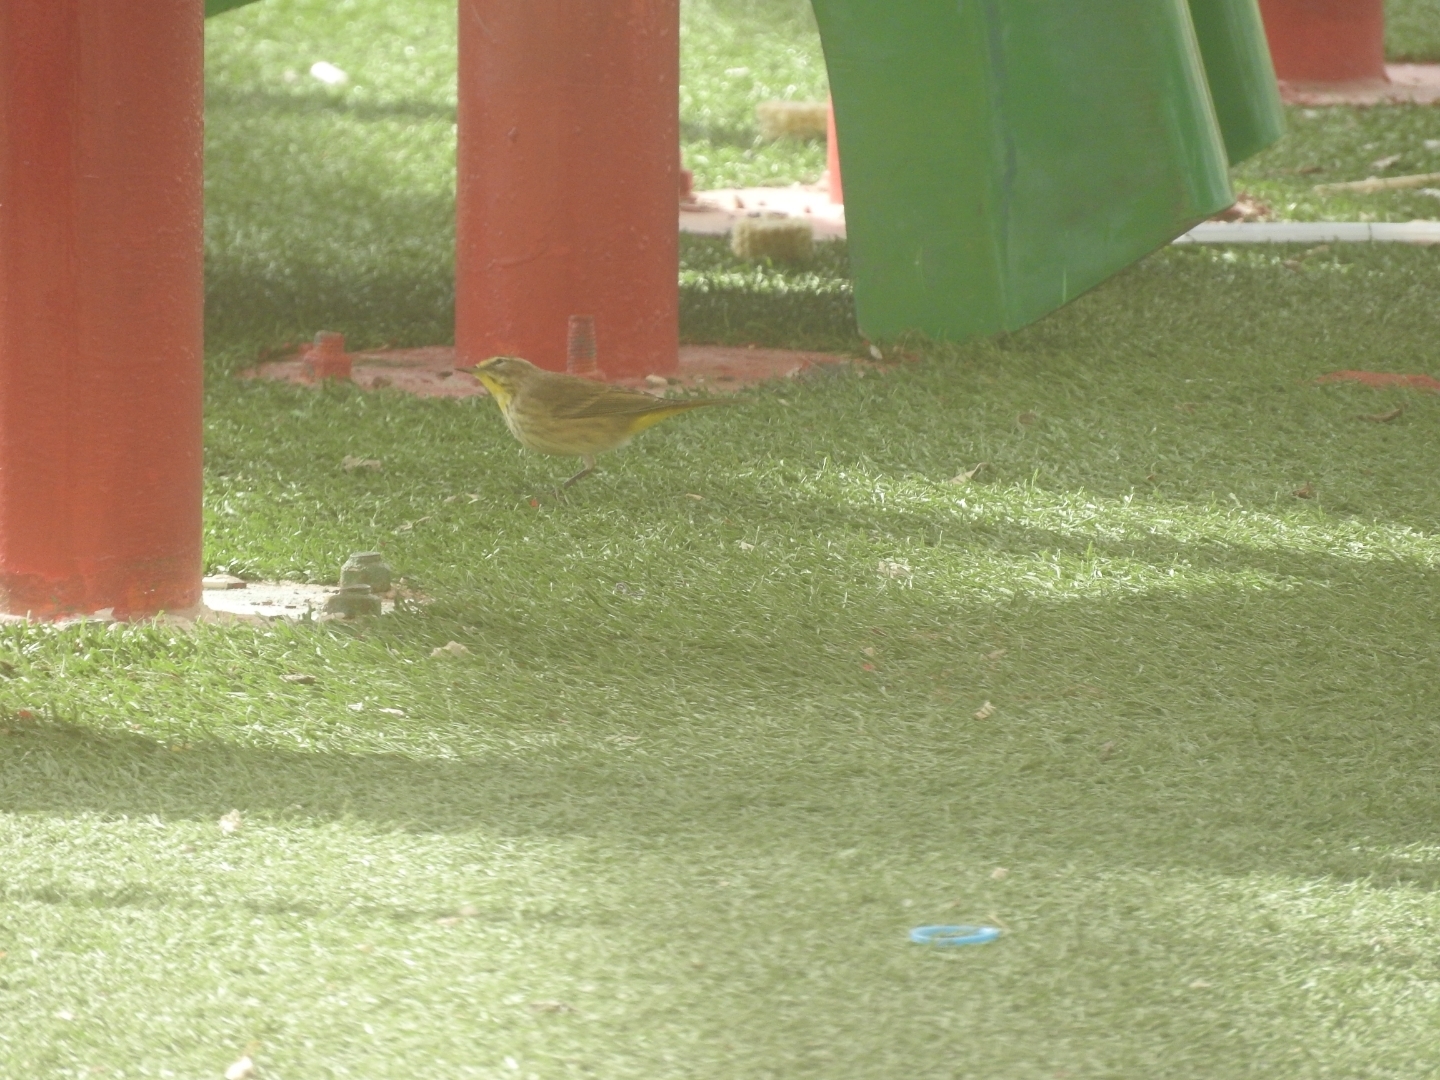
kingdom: Animalia
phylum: Chordata
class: Aves
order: Passeriformes
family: Parulidae
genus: Setophaga
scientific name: Setophaga palmarum
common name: Palm warbler
